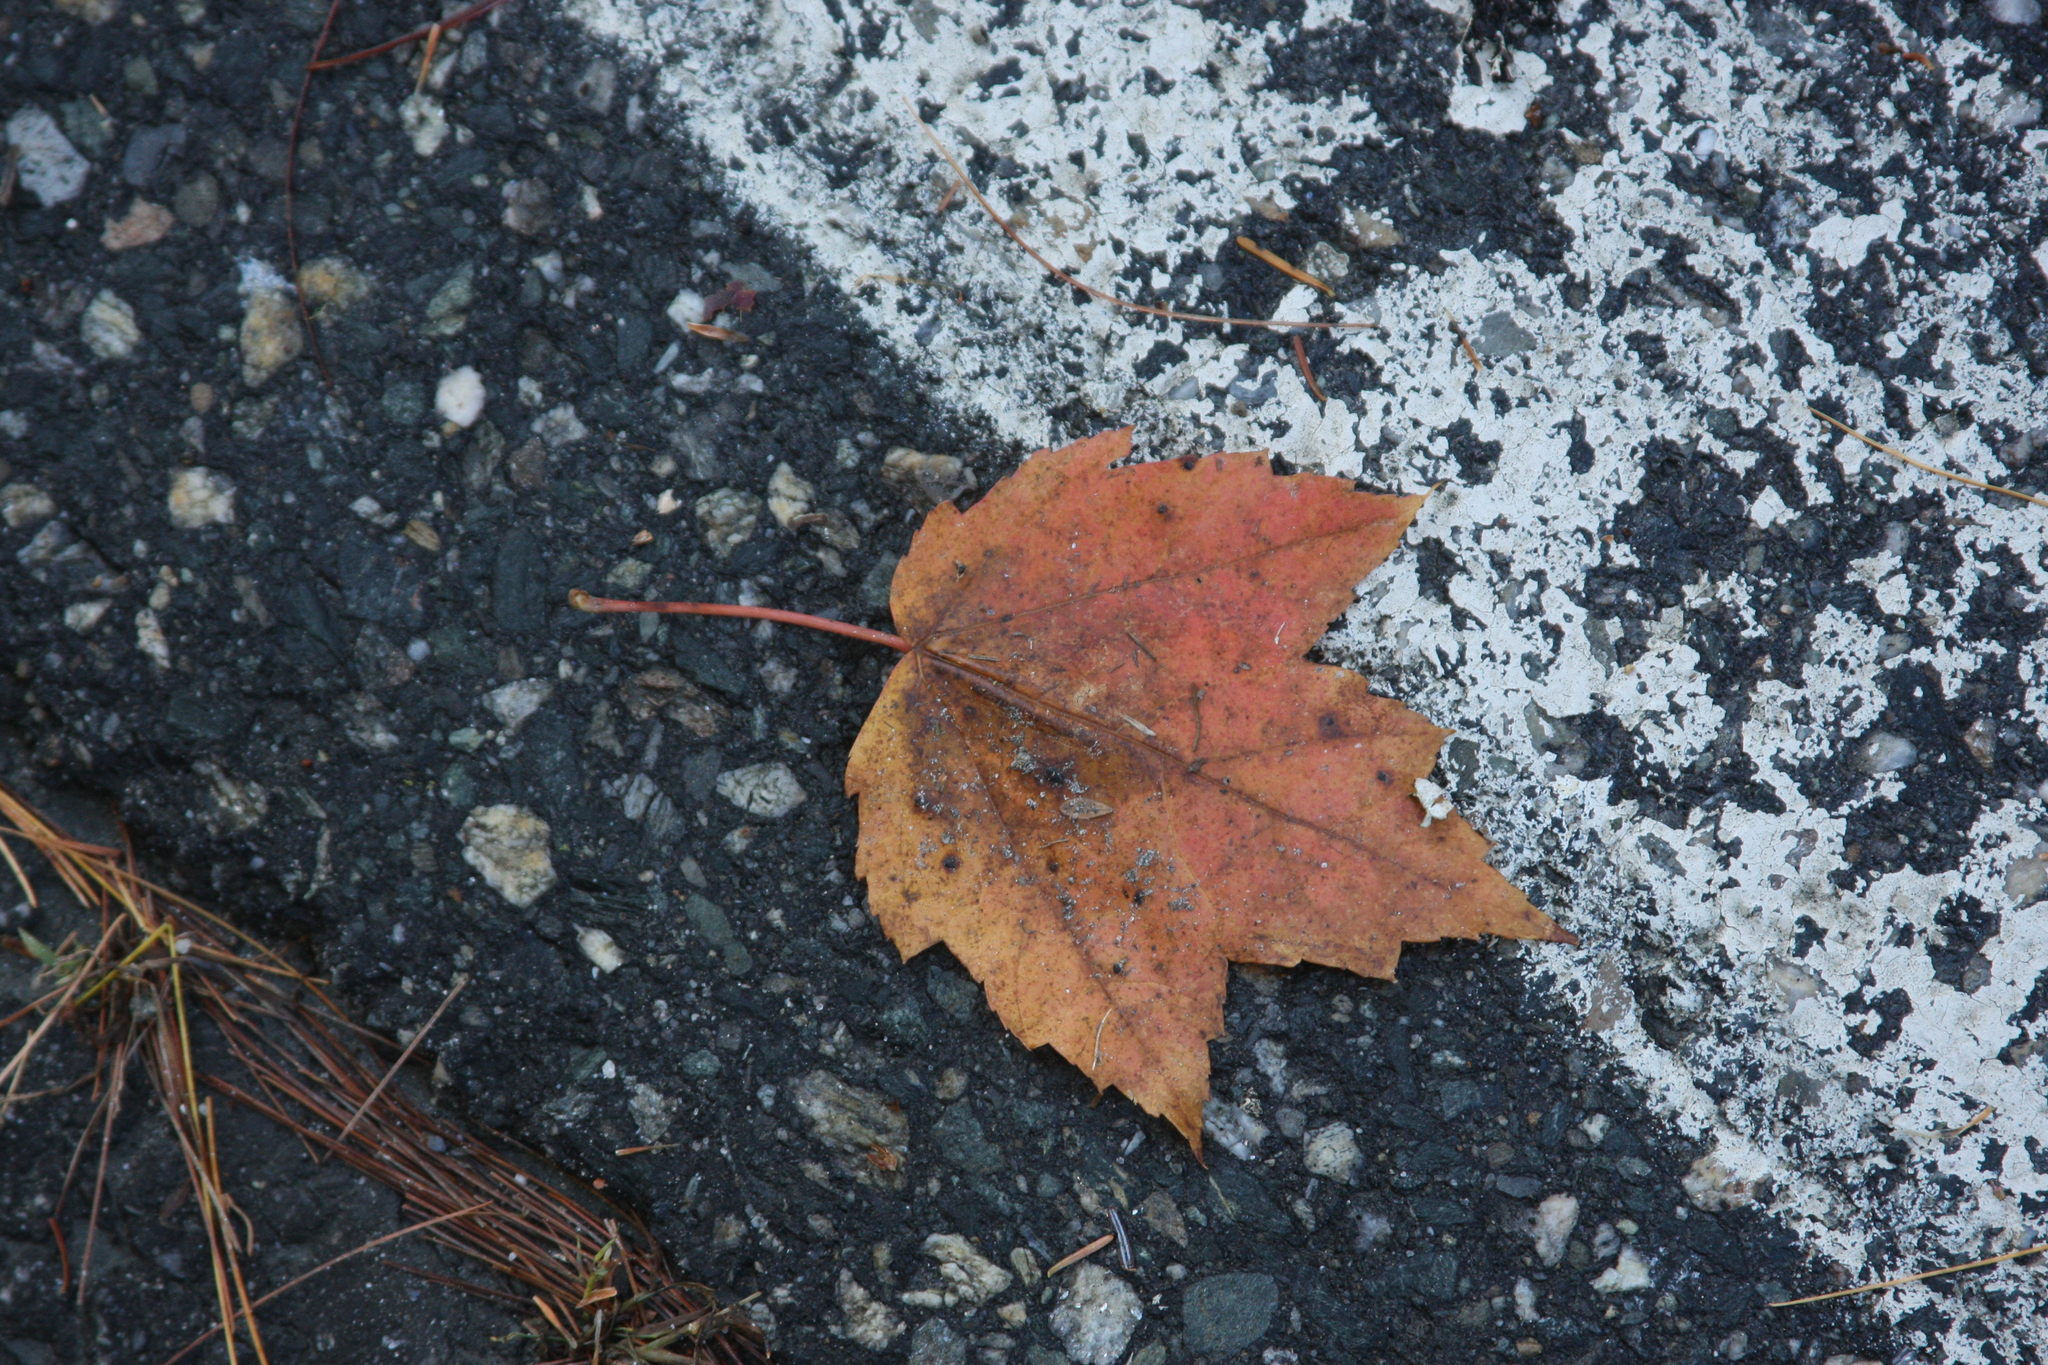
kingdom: Plantae
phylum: Tracheophyta
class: Magnoliopsida
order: Sapindales
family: Sapindaceae
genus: Acer
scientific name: Acer rubrum
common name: Red maple
